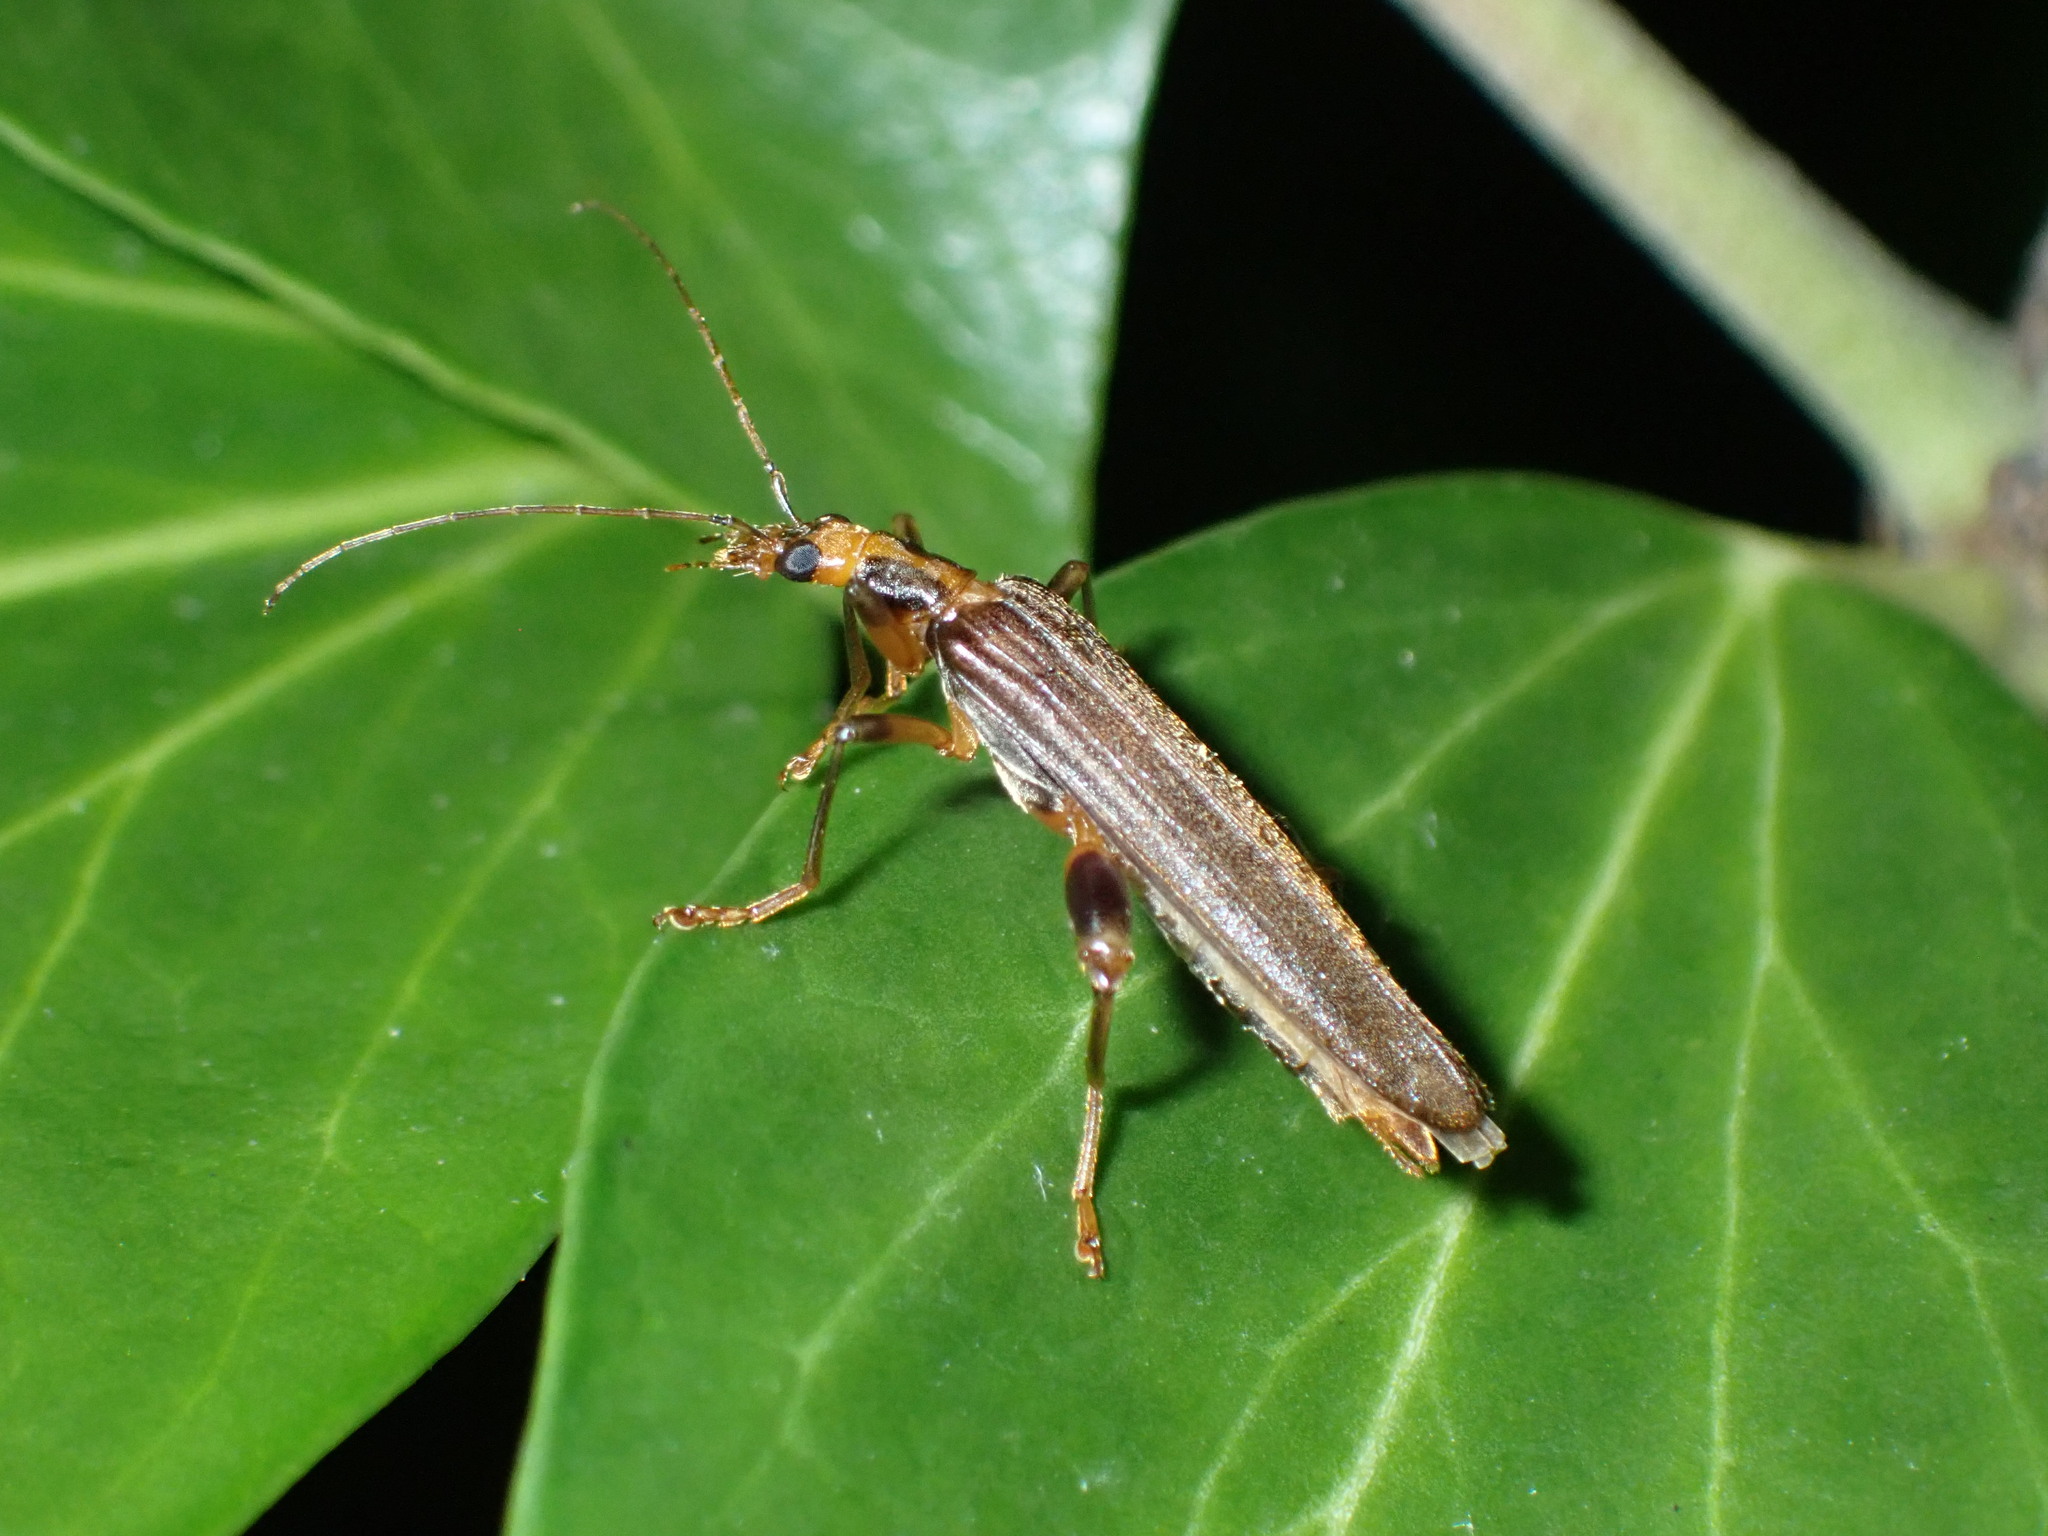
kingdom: Animalia
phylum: Arthropoda
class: Insecta
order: Coleoptera
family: Oedemeridae
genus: Oedemera
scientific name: Oedemera femoralis
